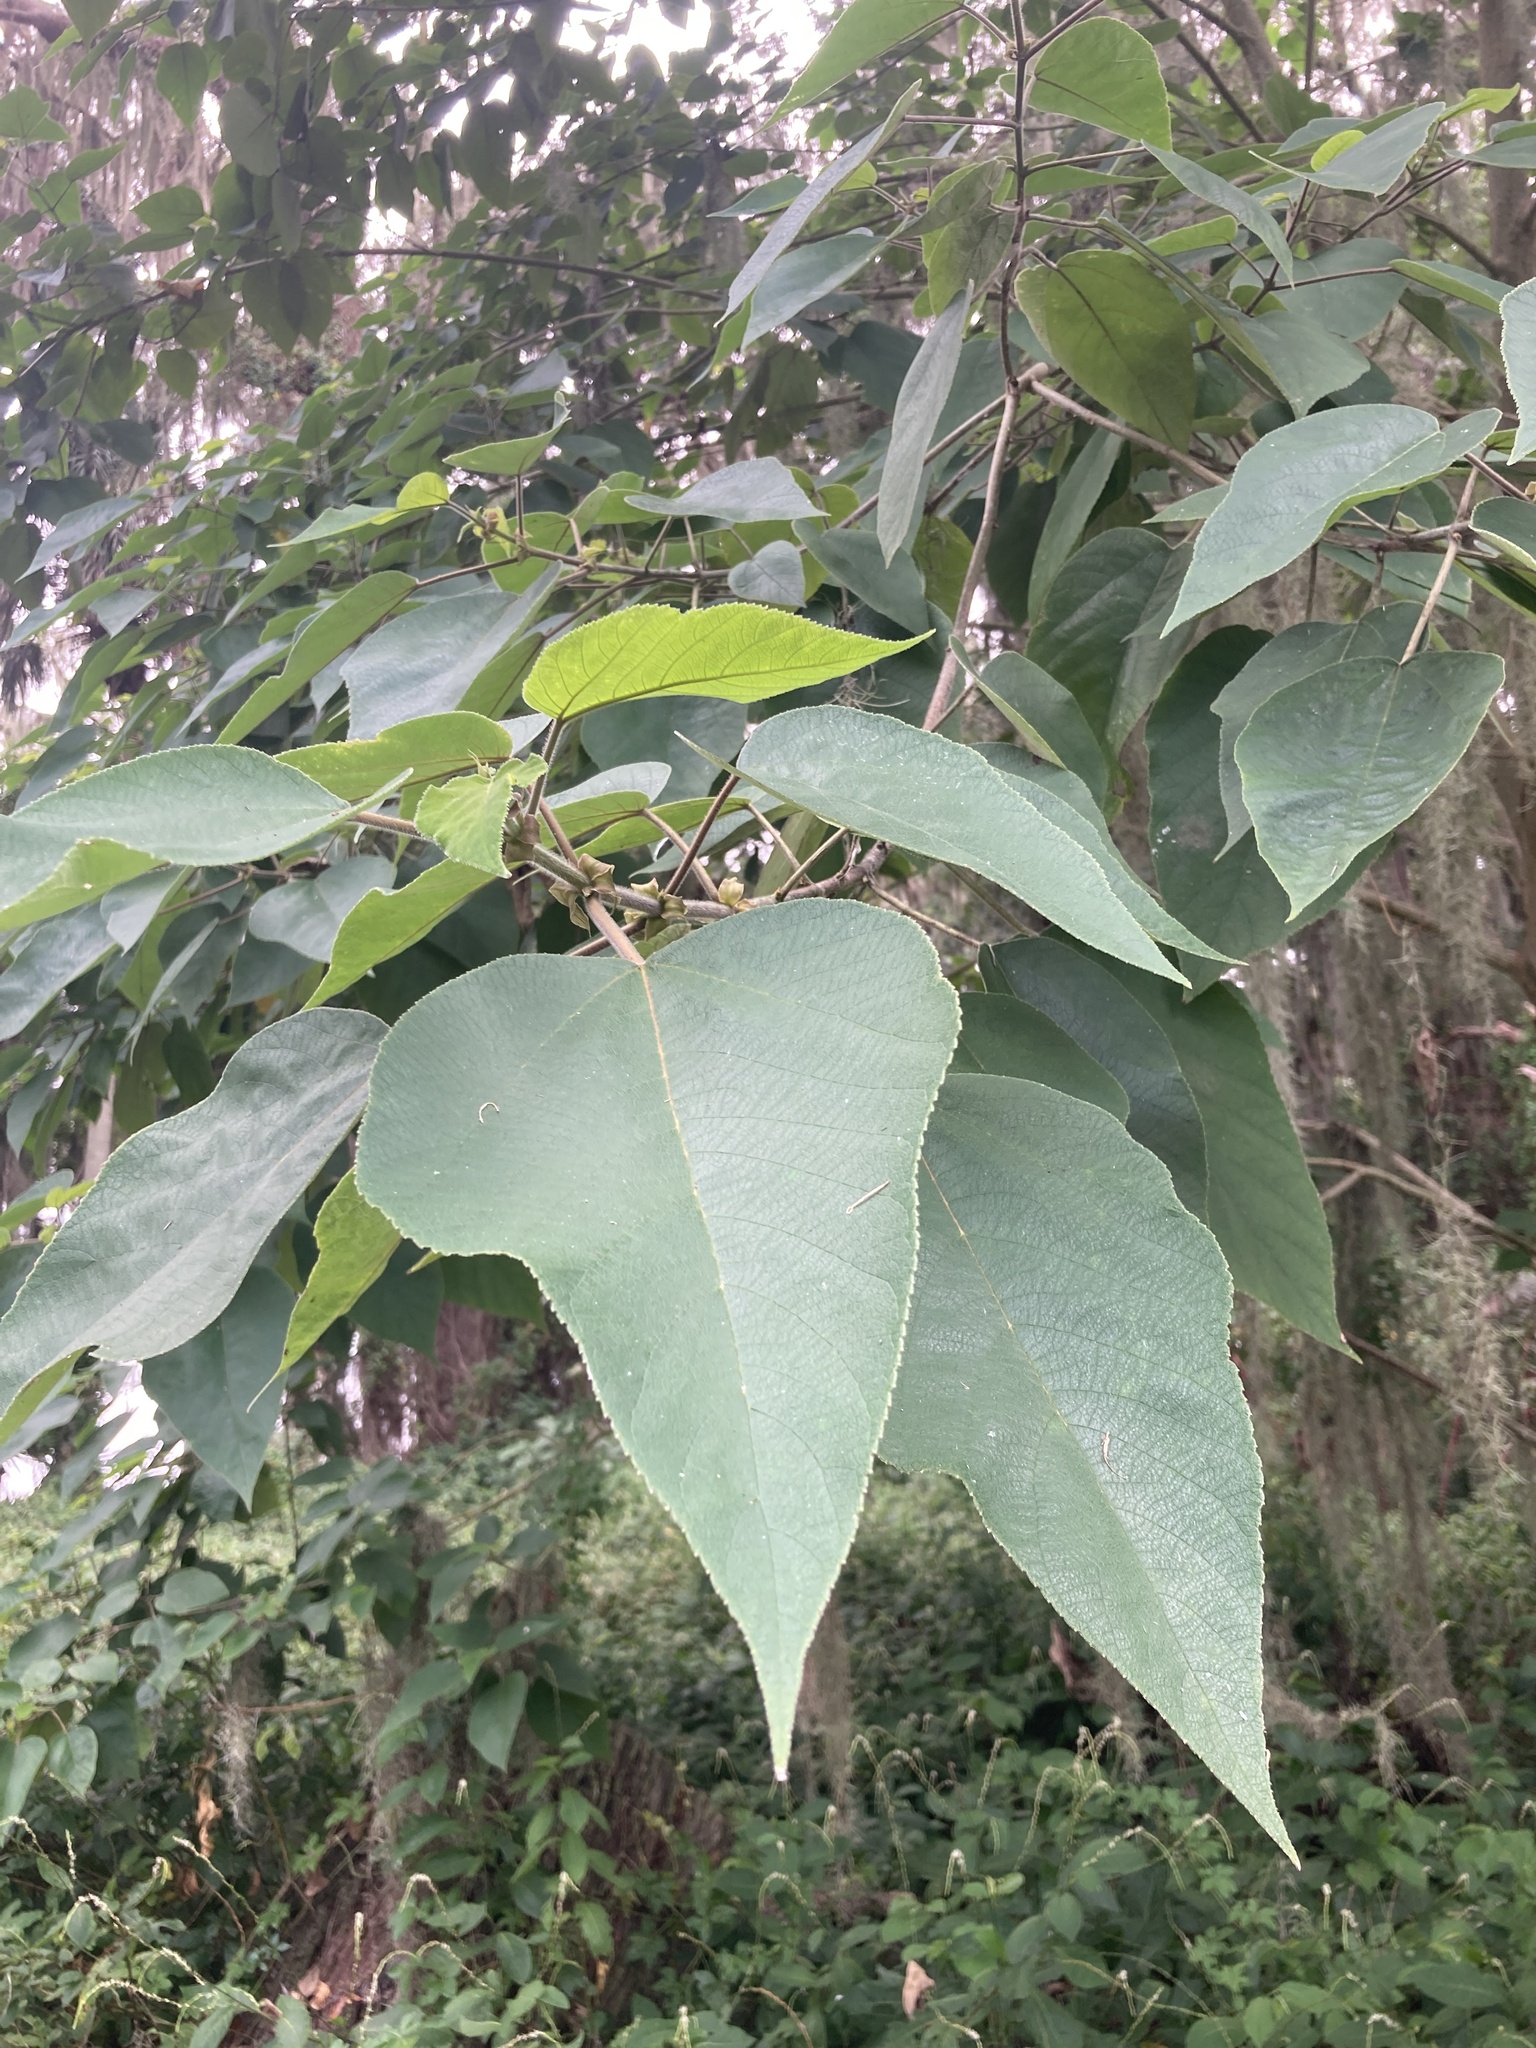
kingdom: Plantae
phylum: Tracheophyta
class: Magnoliopsida
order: Rosales
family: Moraceae
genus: Broussonetia
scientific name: Broussonetia papyrifera
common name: Paper mulberry
